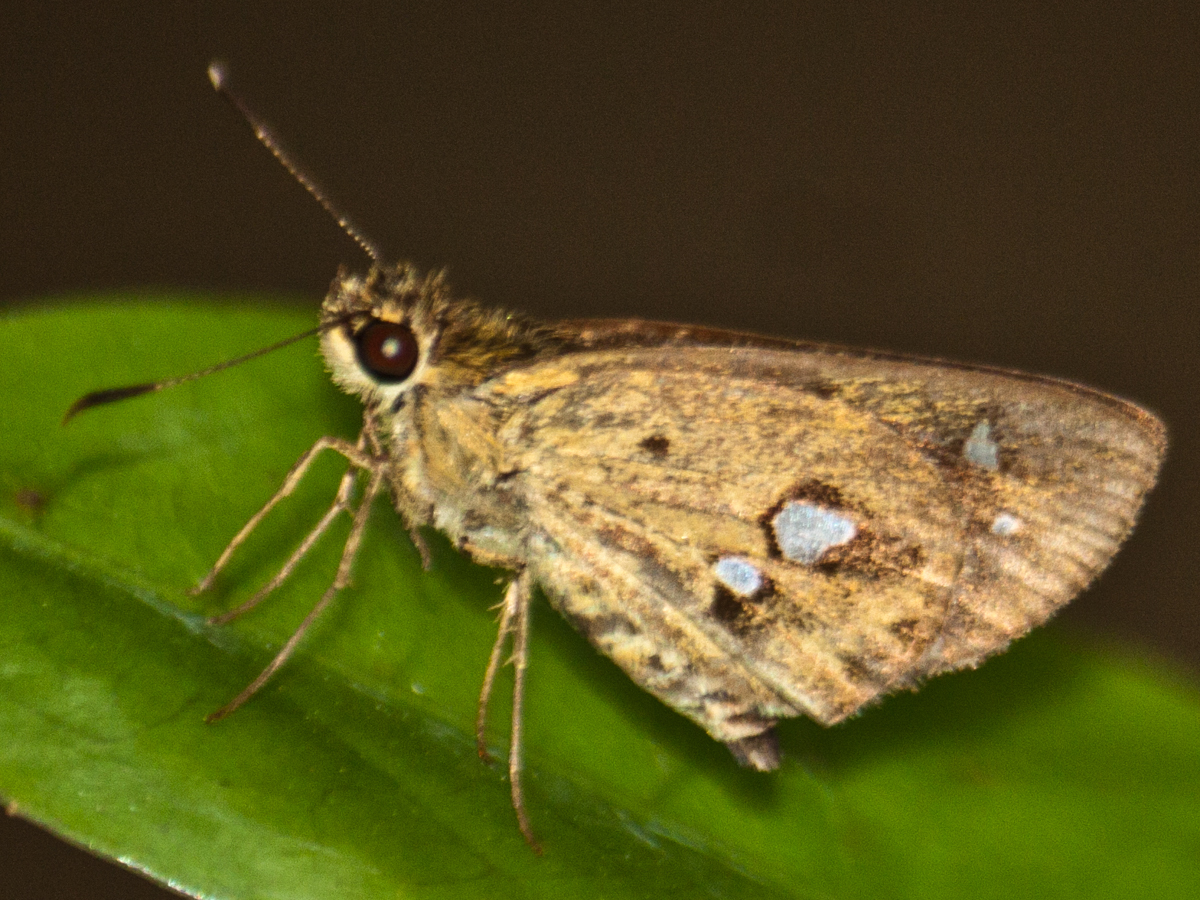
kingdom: Animalia
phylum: Arthropoda
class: Insecta
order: Lepidoptera
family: Hesperiidae
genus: Scobura
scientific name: Scobura isota
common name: Swinhoe's forest bob
